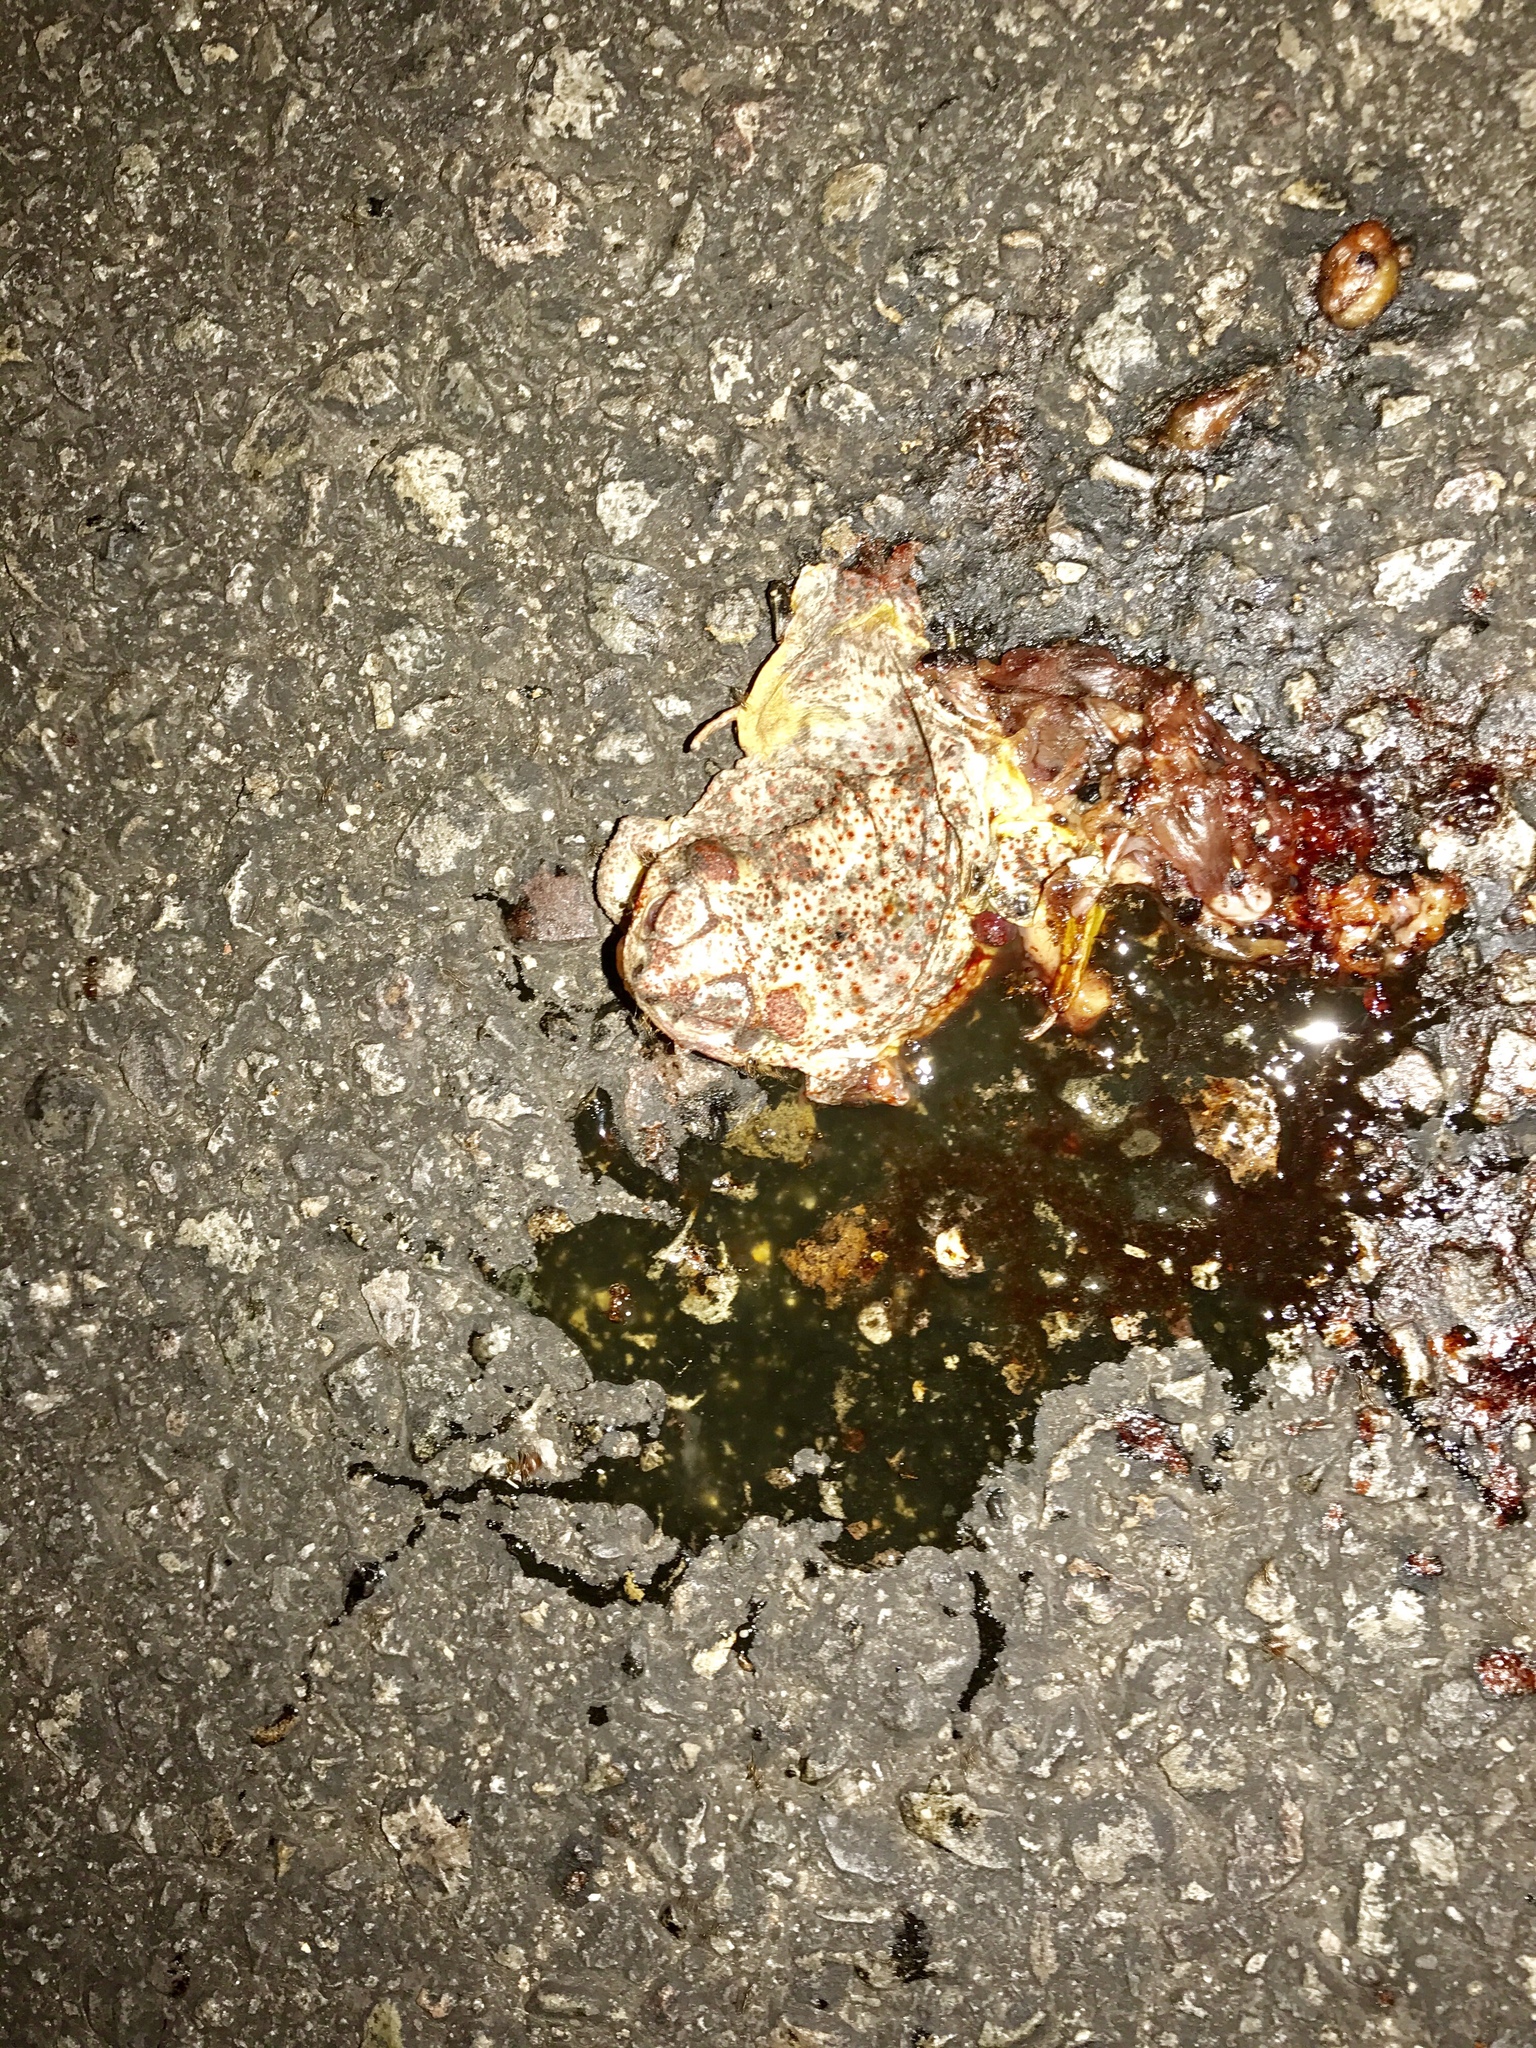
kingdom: Animalia
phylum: Chordata
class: Amphibia
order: Anura
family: Bufonidae
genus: Anaxyrus
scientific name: Anaxyrus punctatus
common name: Red-spotted toad
